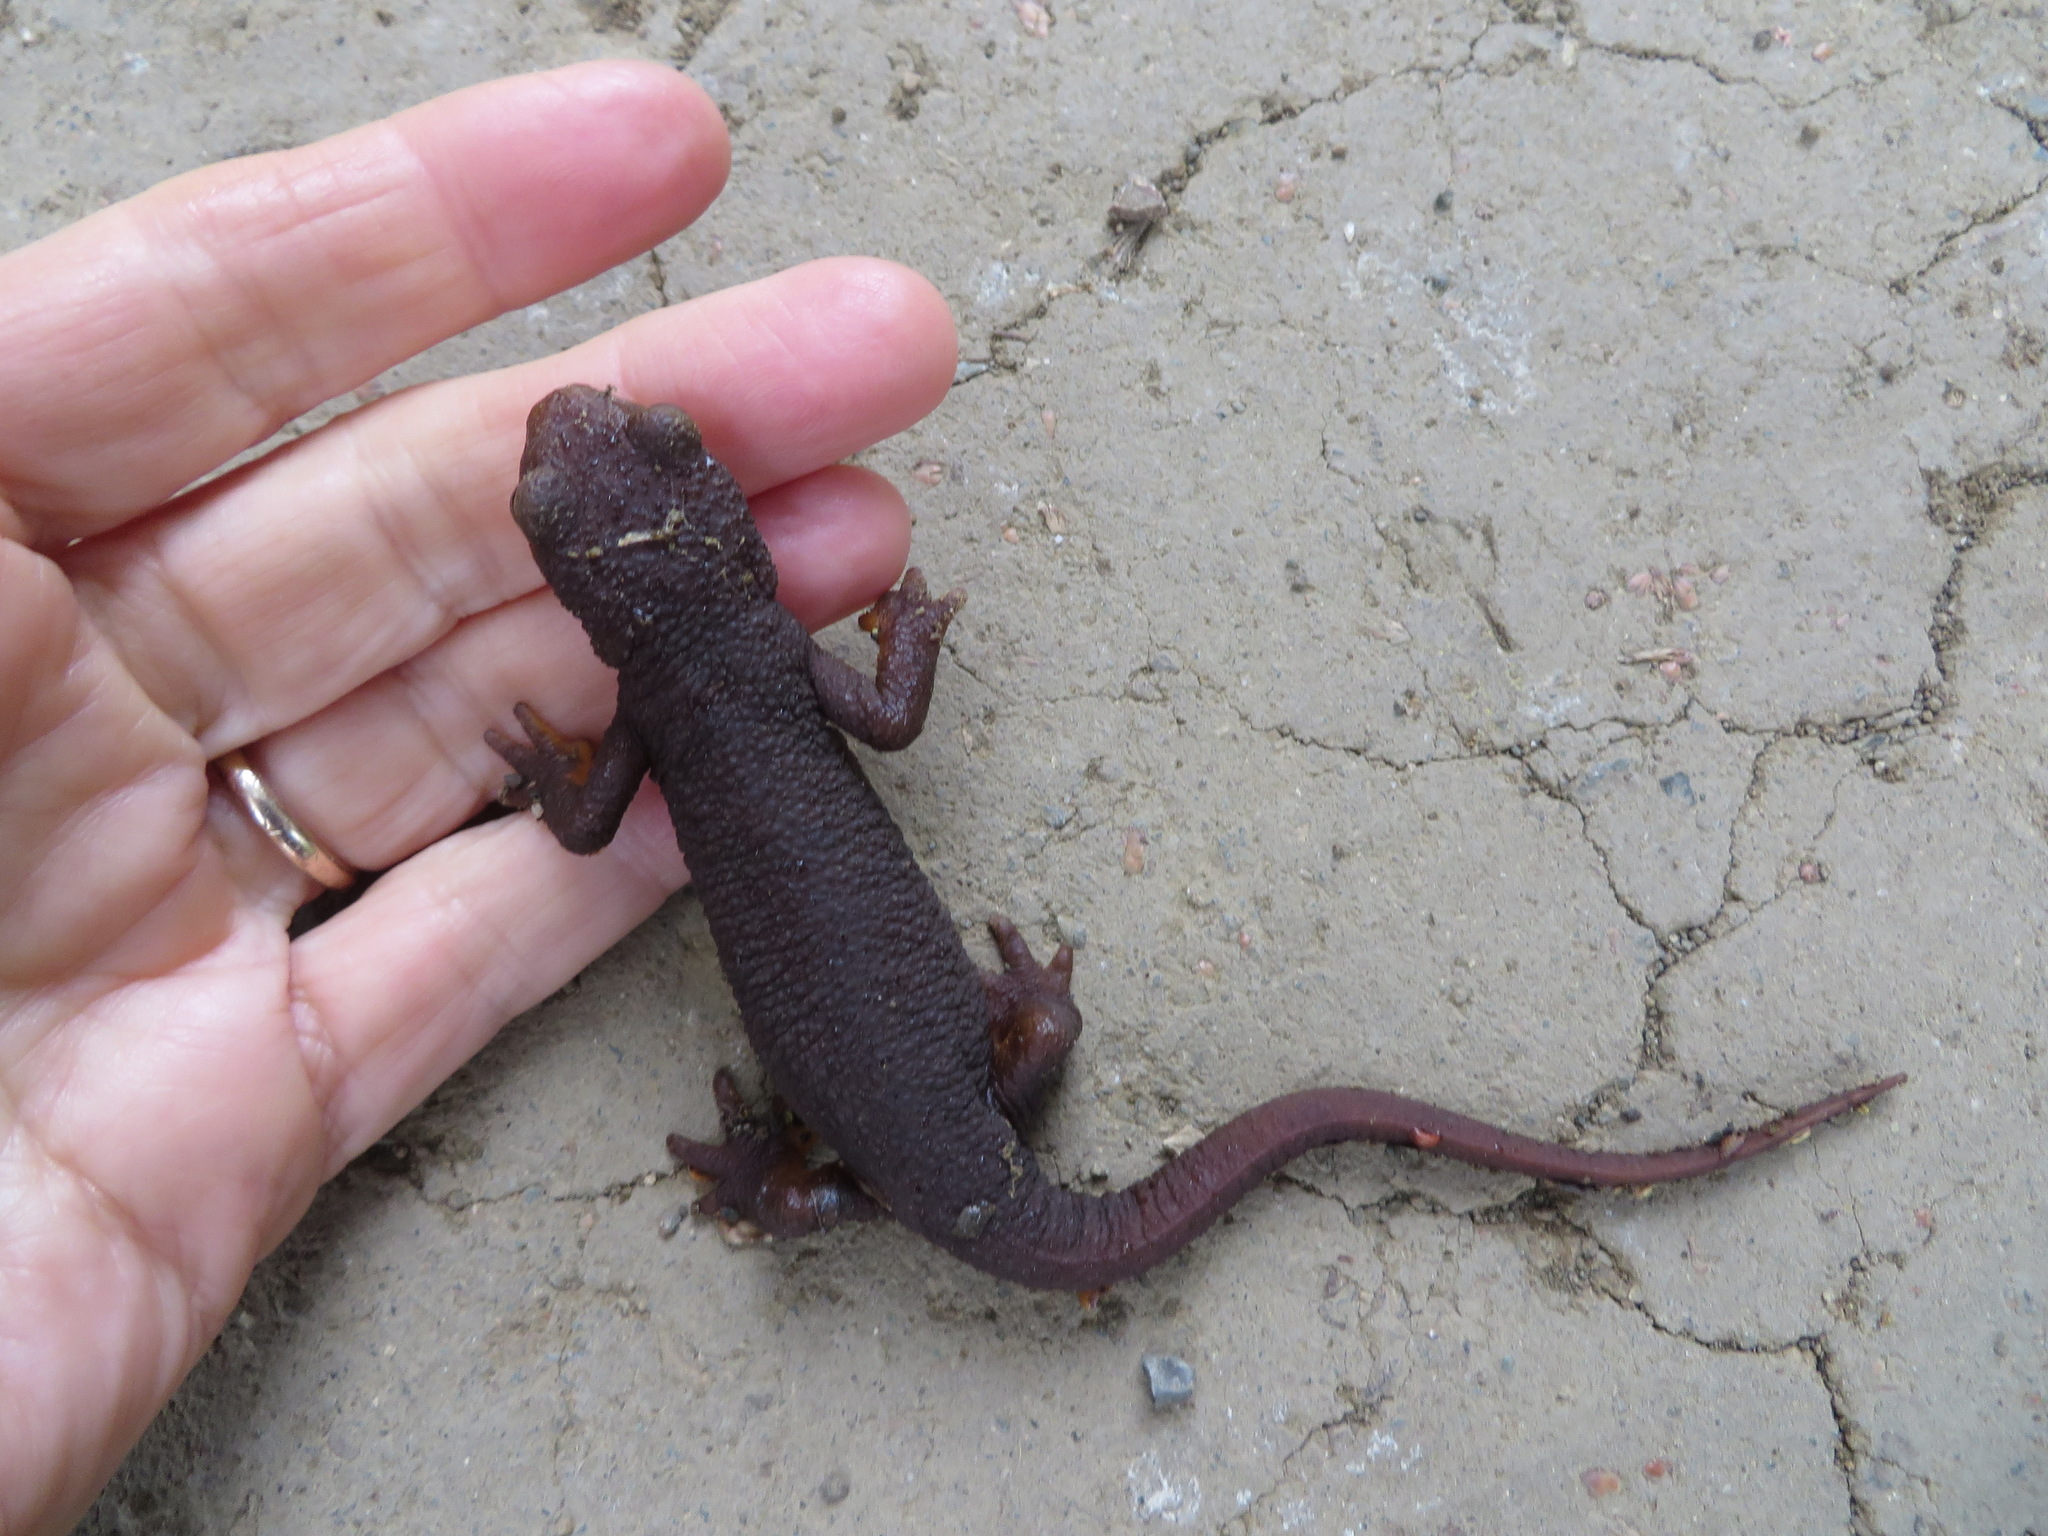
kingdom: Animalia
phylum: Chordata
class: Amphibia
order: Caudata
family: Salamandridae
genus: Taricha
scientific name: Taricha torosa
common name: California newt
